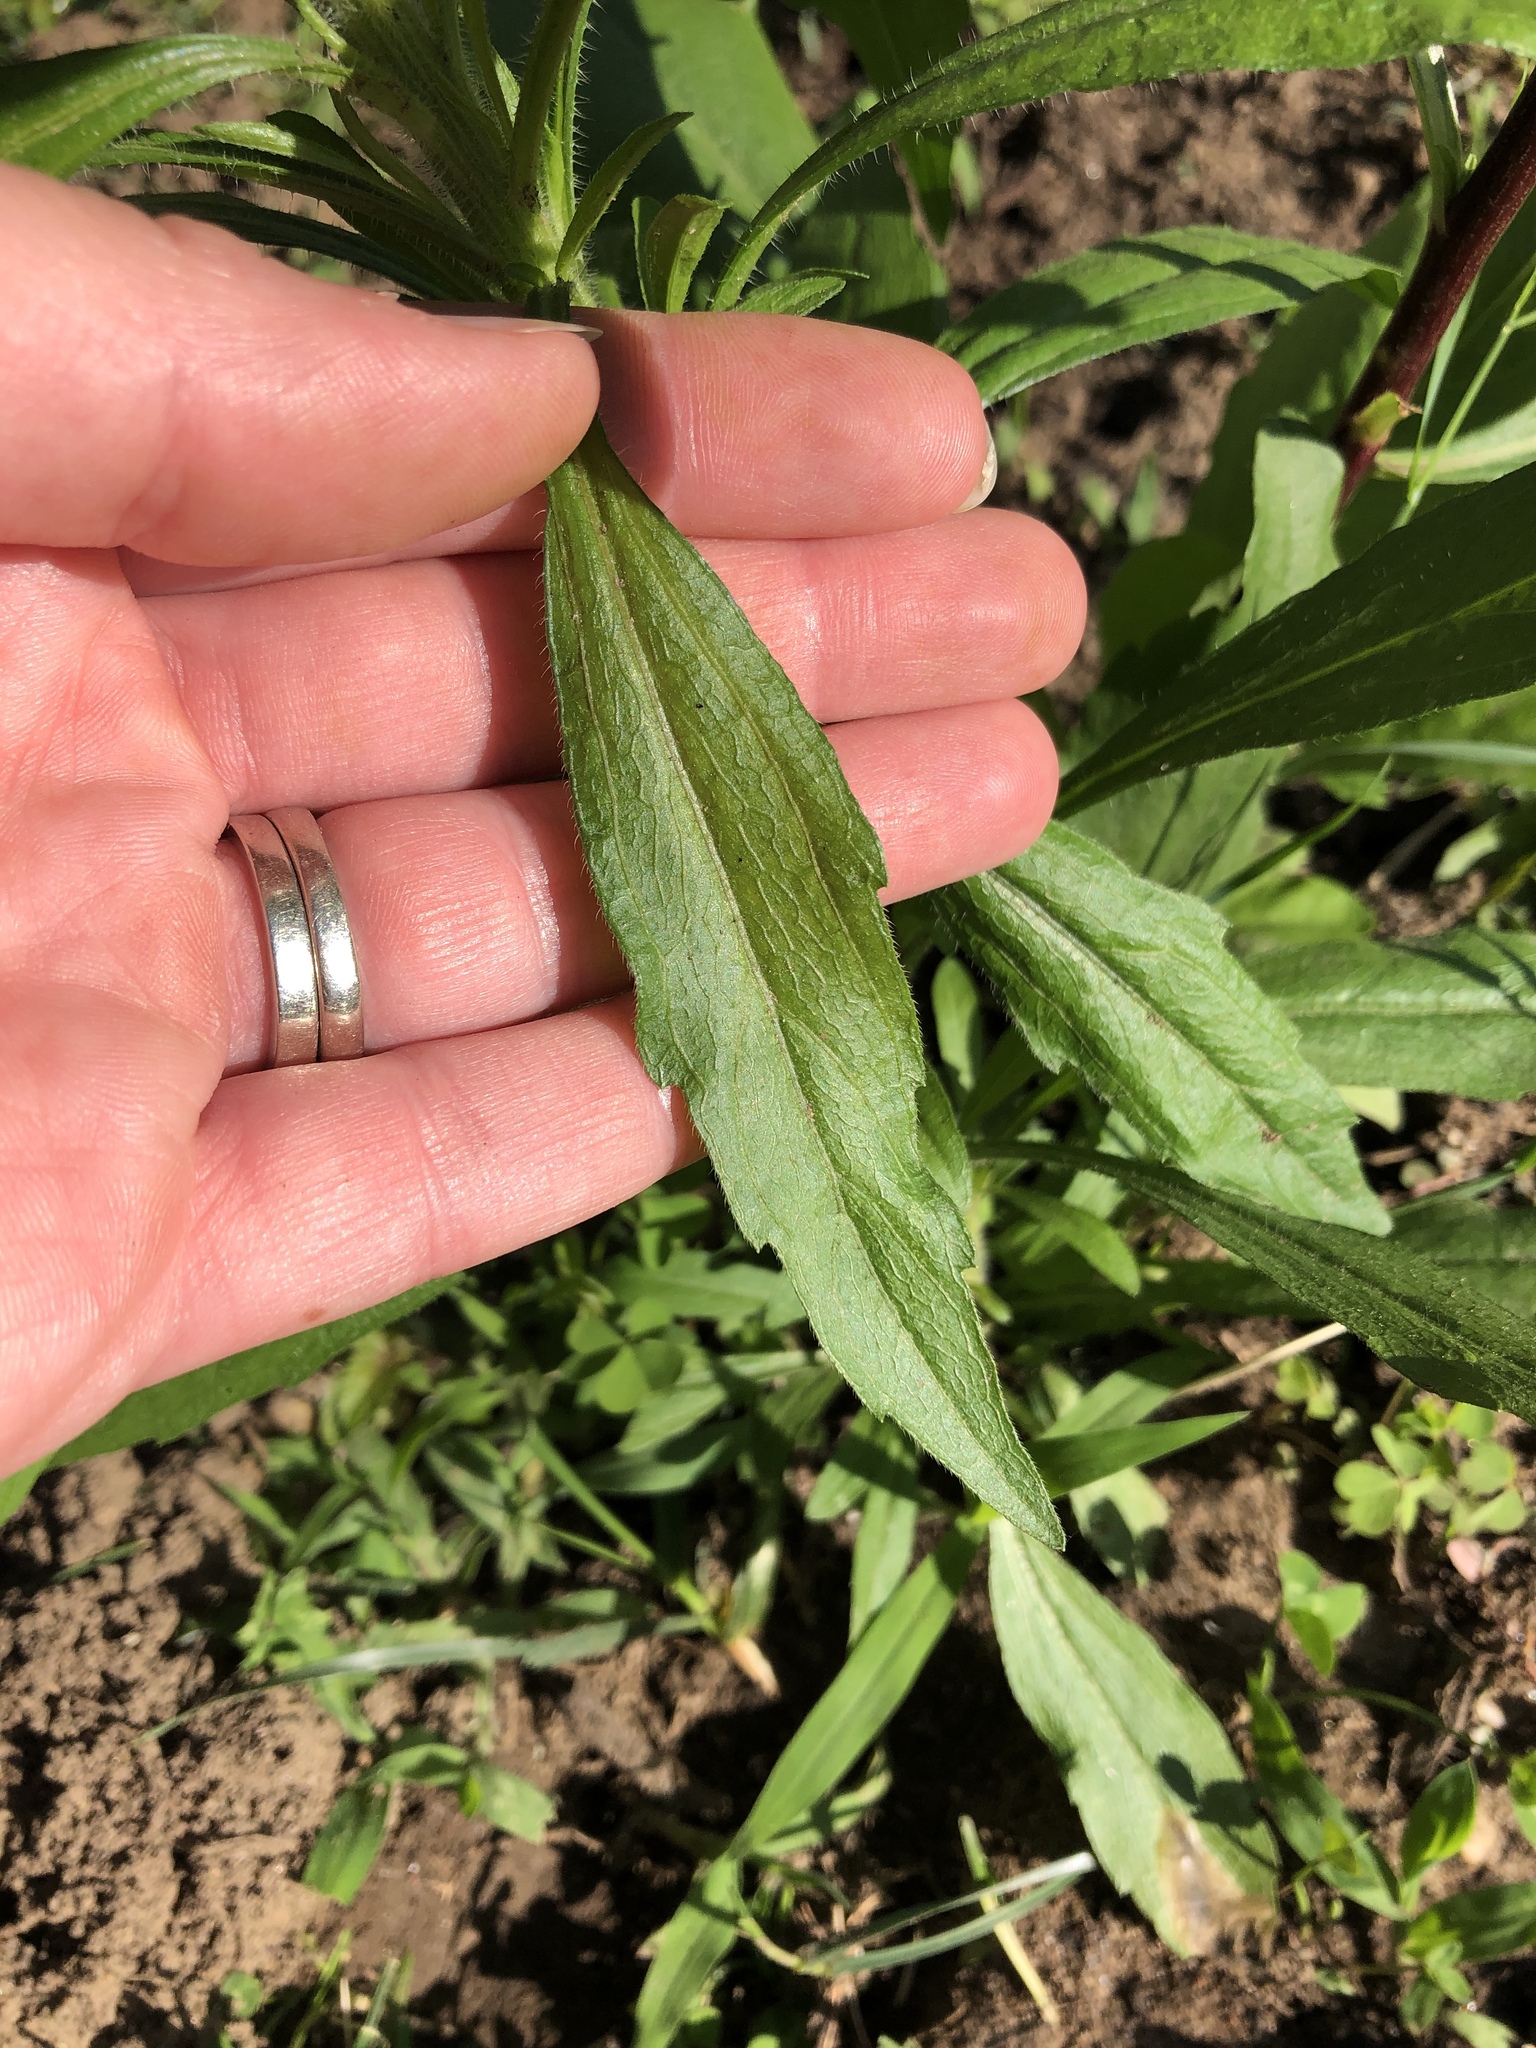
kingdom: Plantae
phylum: Tracheophyta
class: Magnoliopsida
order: Asterales
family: Asteraceae
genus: Erigeron
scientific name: Erigeron canadensis
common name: Canadian fleabane
